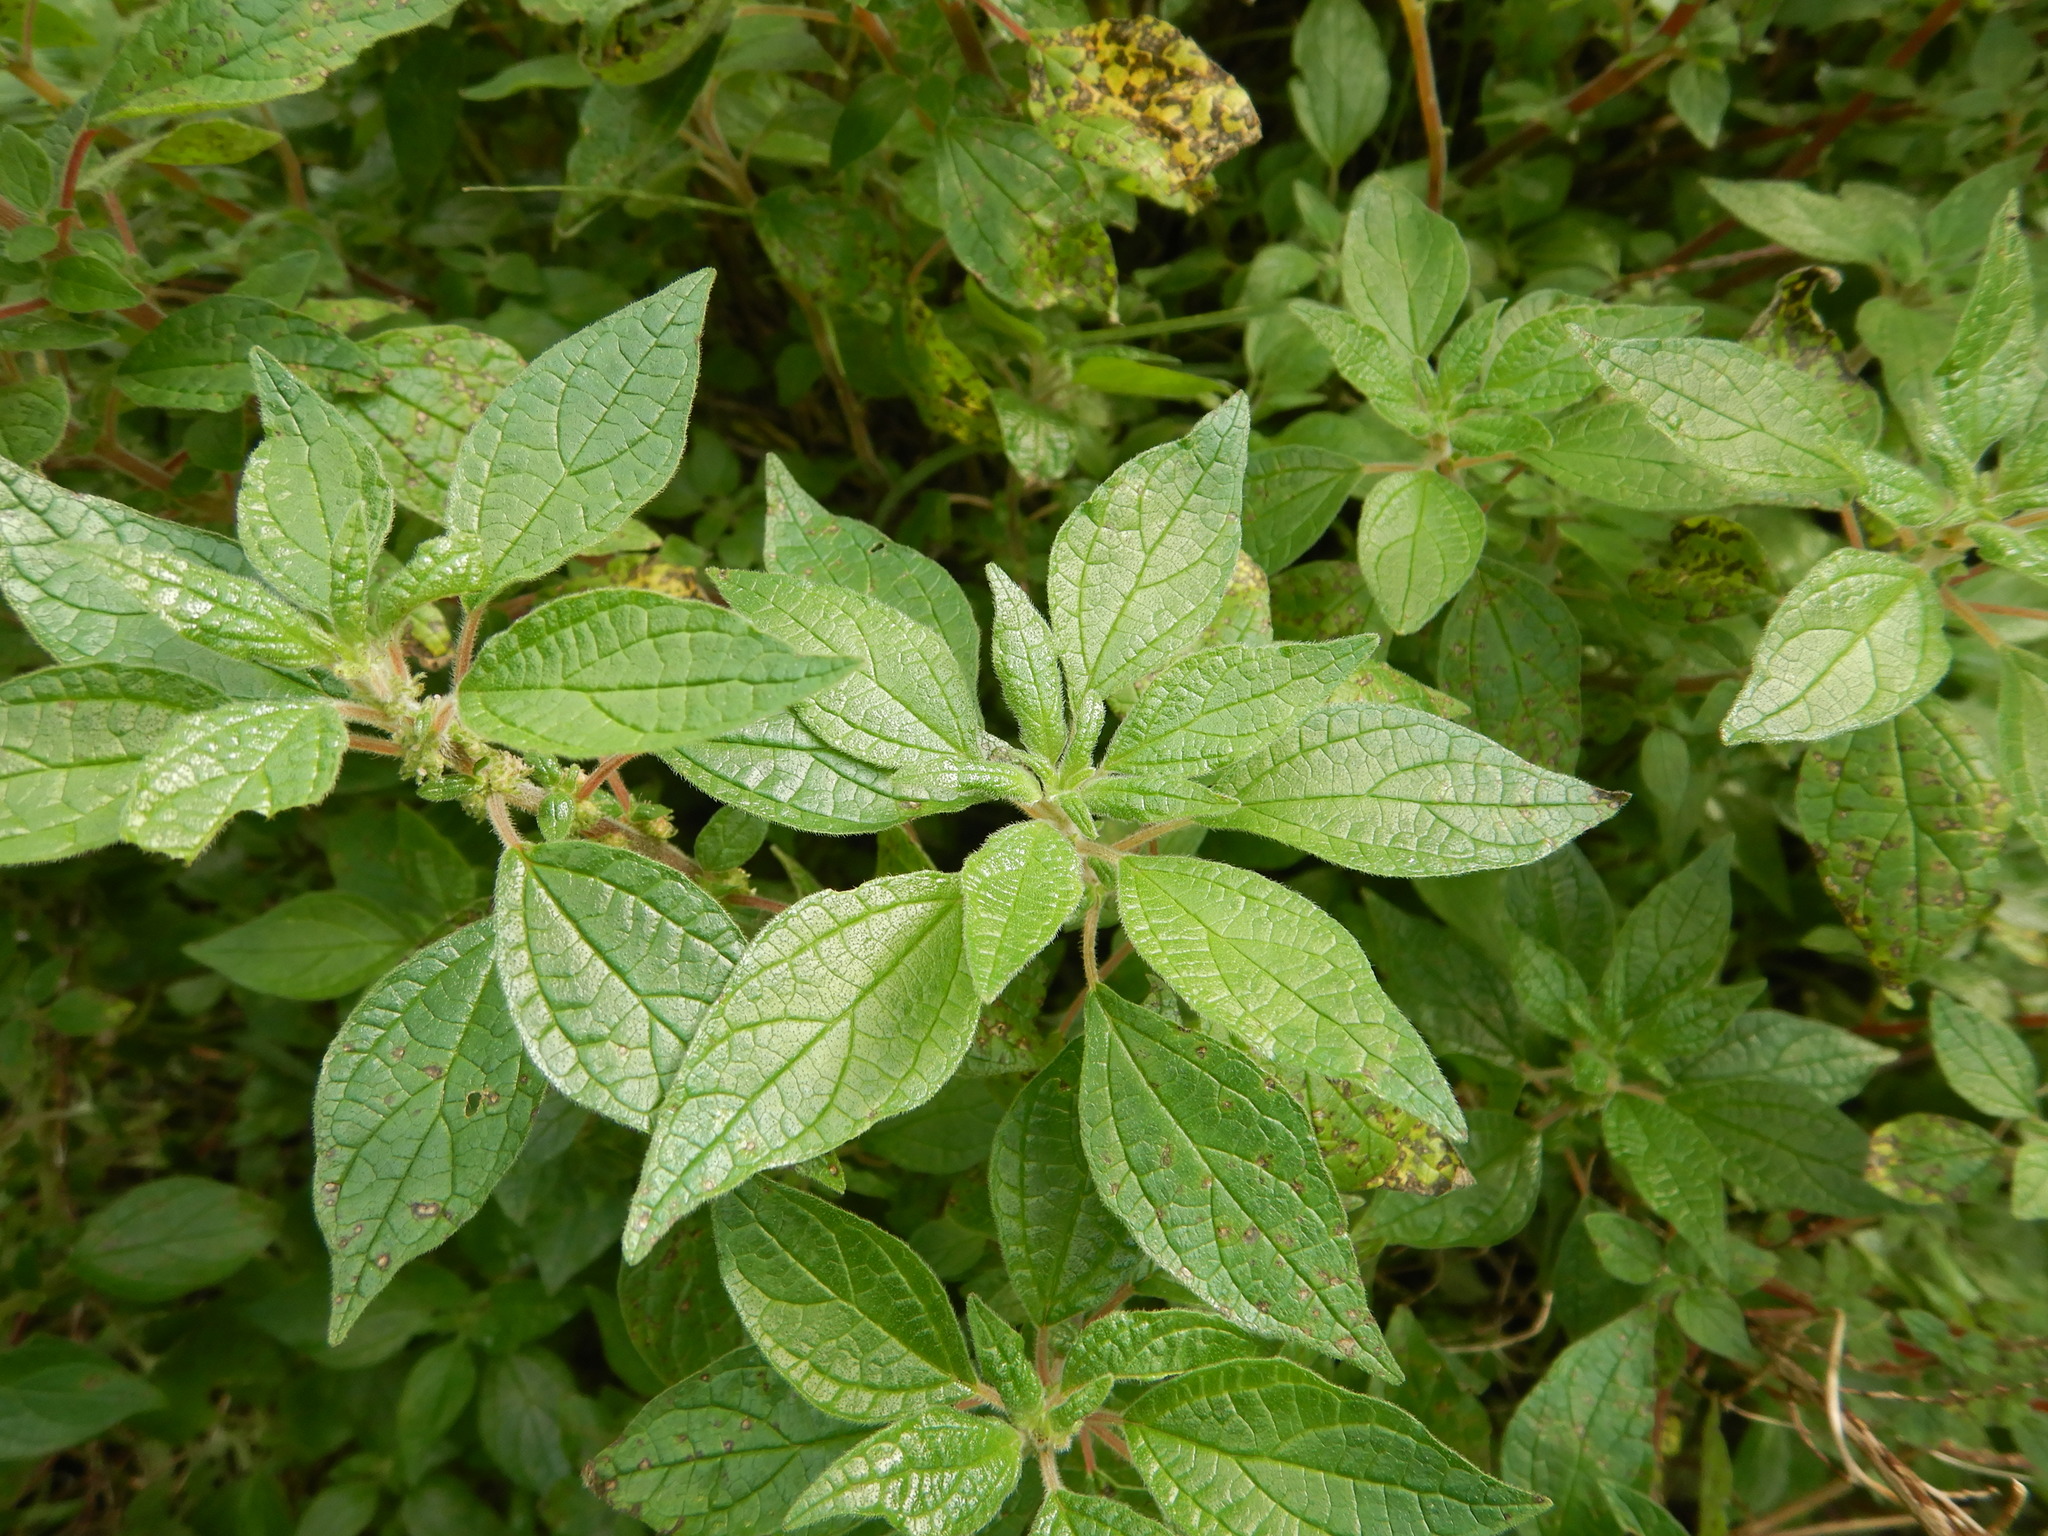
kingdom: Plantae
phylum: Tracheophyta
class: Magnoliopsida
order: Rosales
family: Urticaceae
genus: Parietaria
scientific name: Parietaria judaica
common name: Pellitory-of-the-wall
